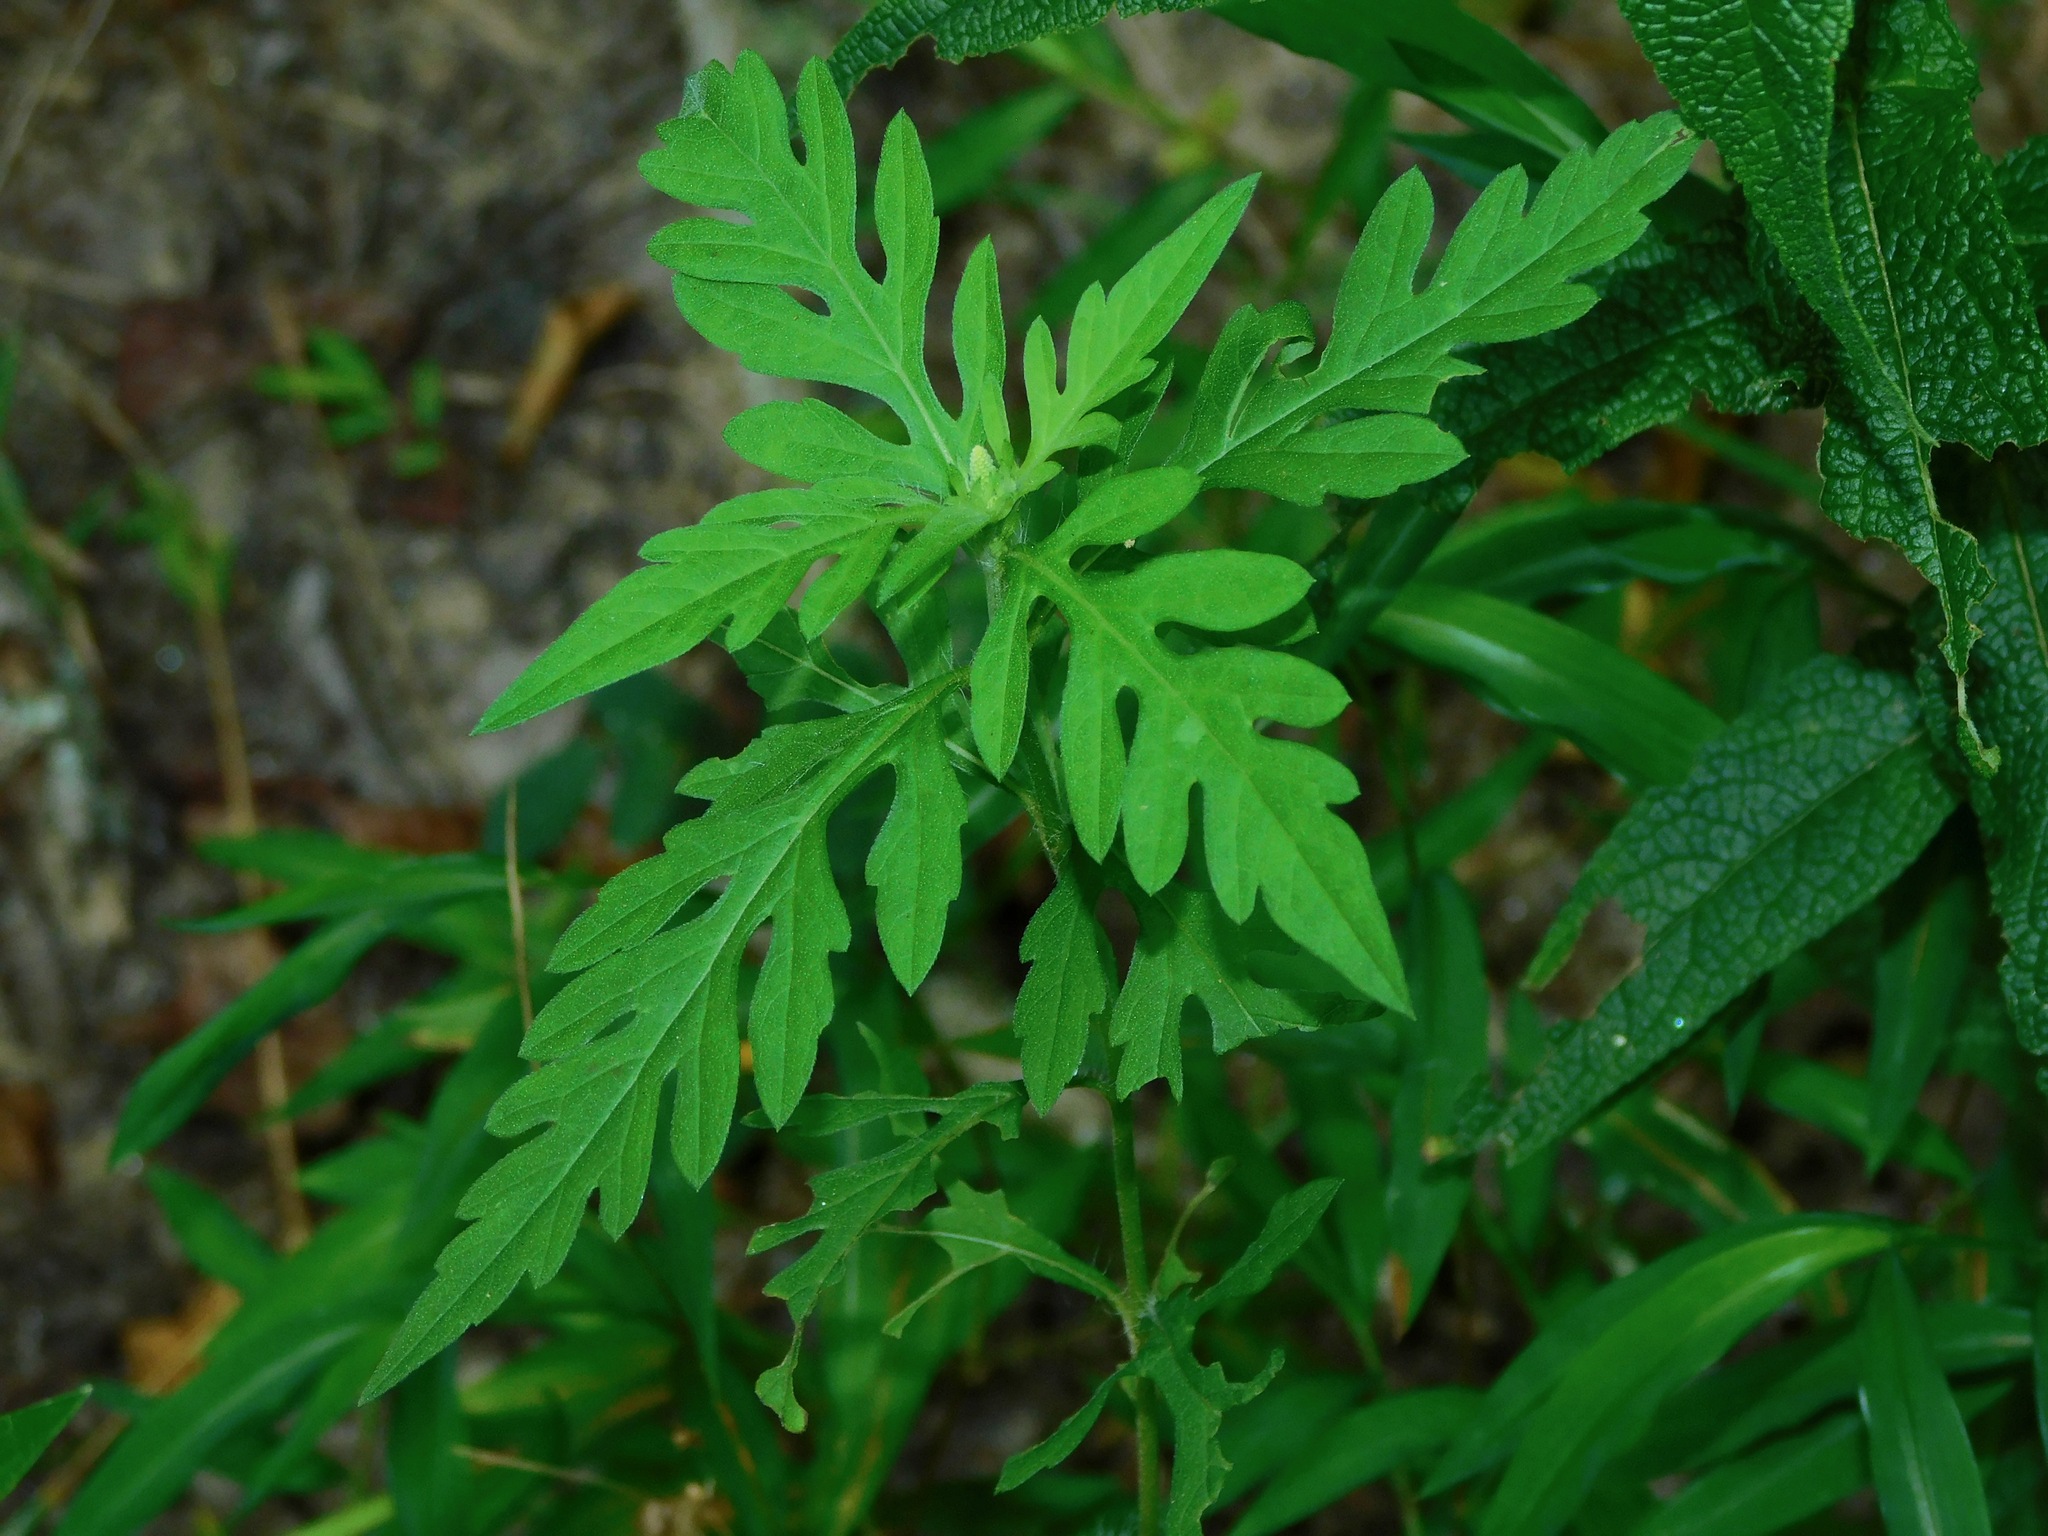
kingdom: Plantae
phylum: Tracheophyta
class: Magnoliopsida
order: Asterales
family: Asteraceae
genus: Ambrosia
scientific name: Ambrosia artemisiifolia
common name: Annual ragweed
